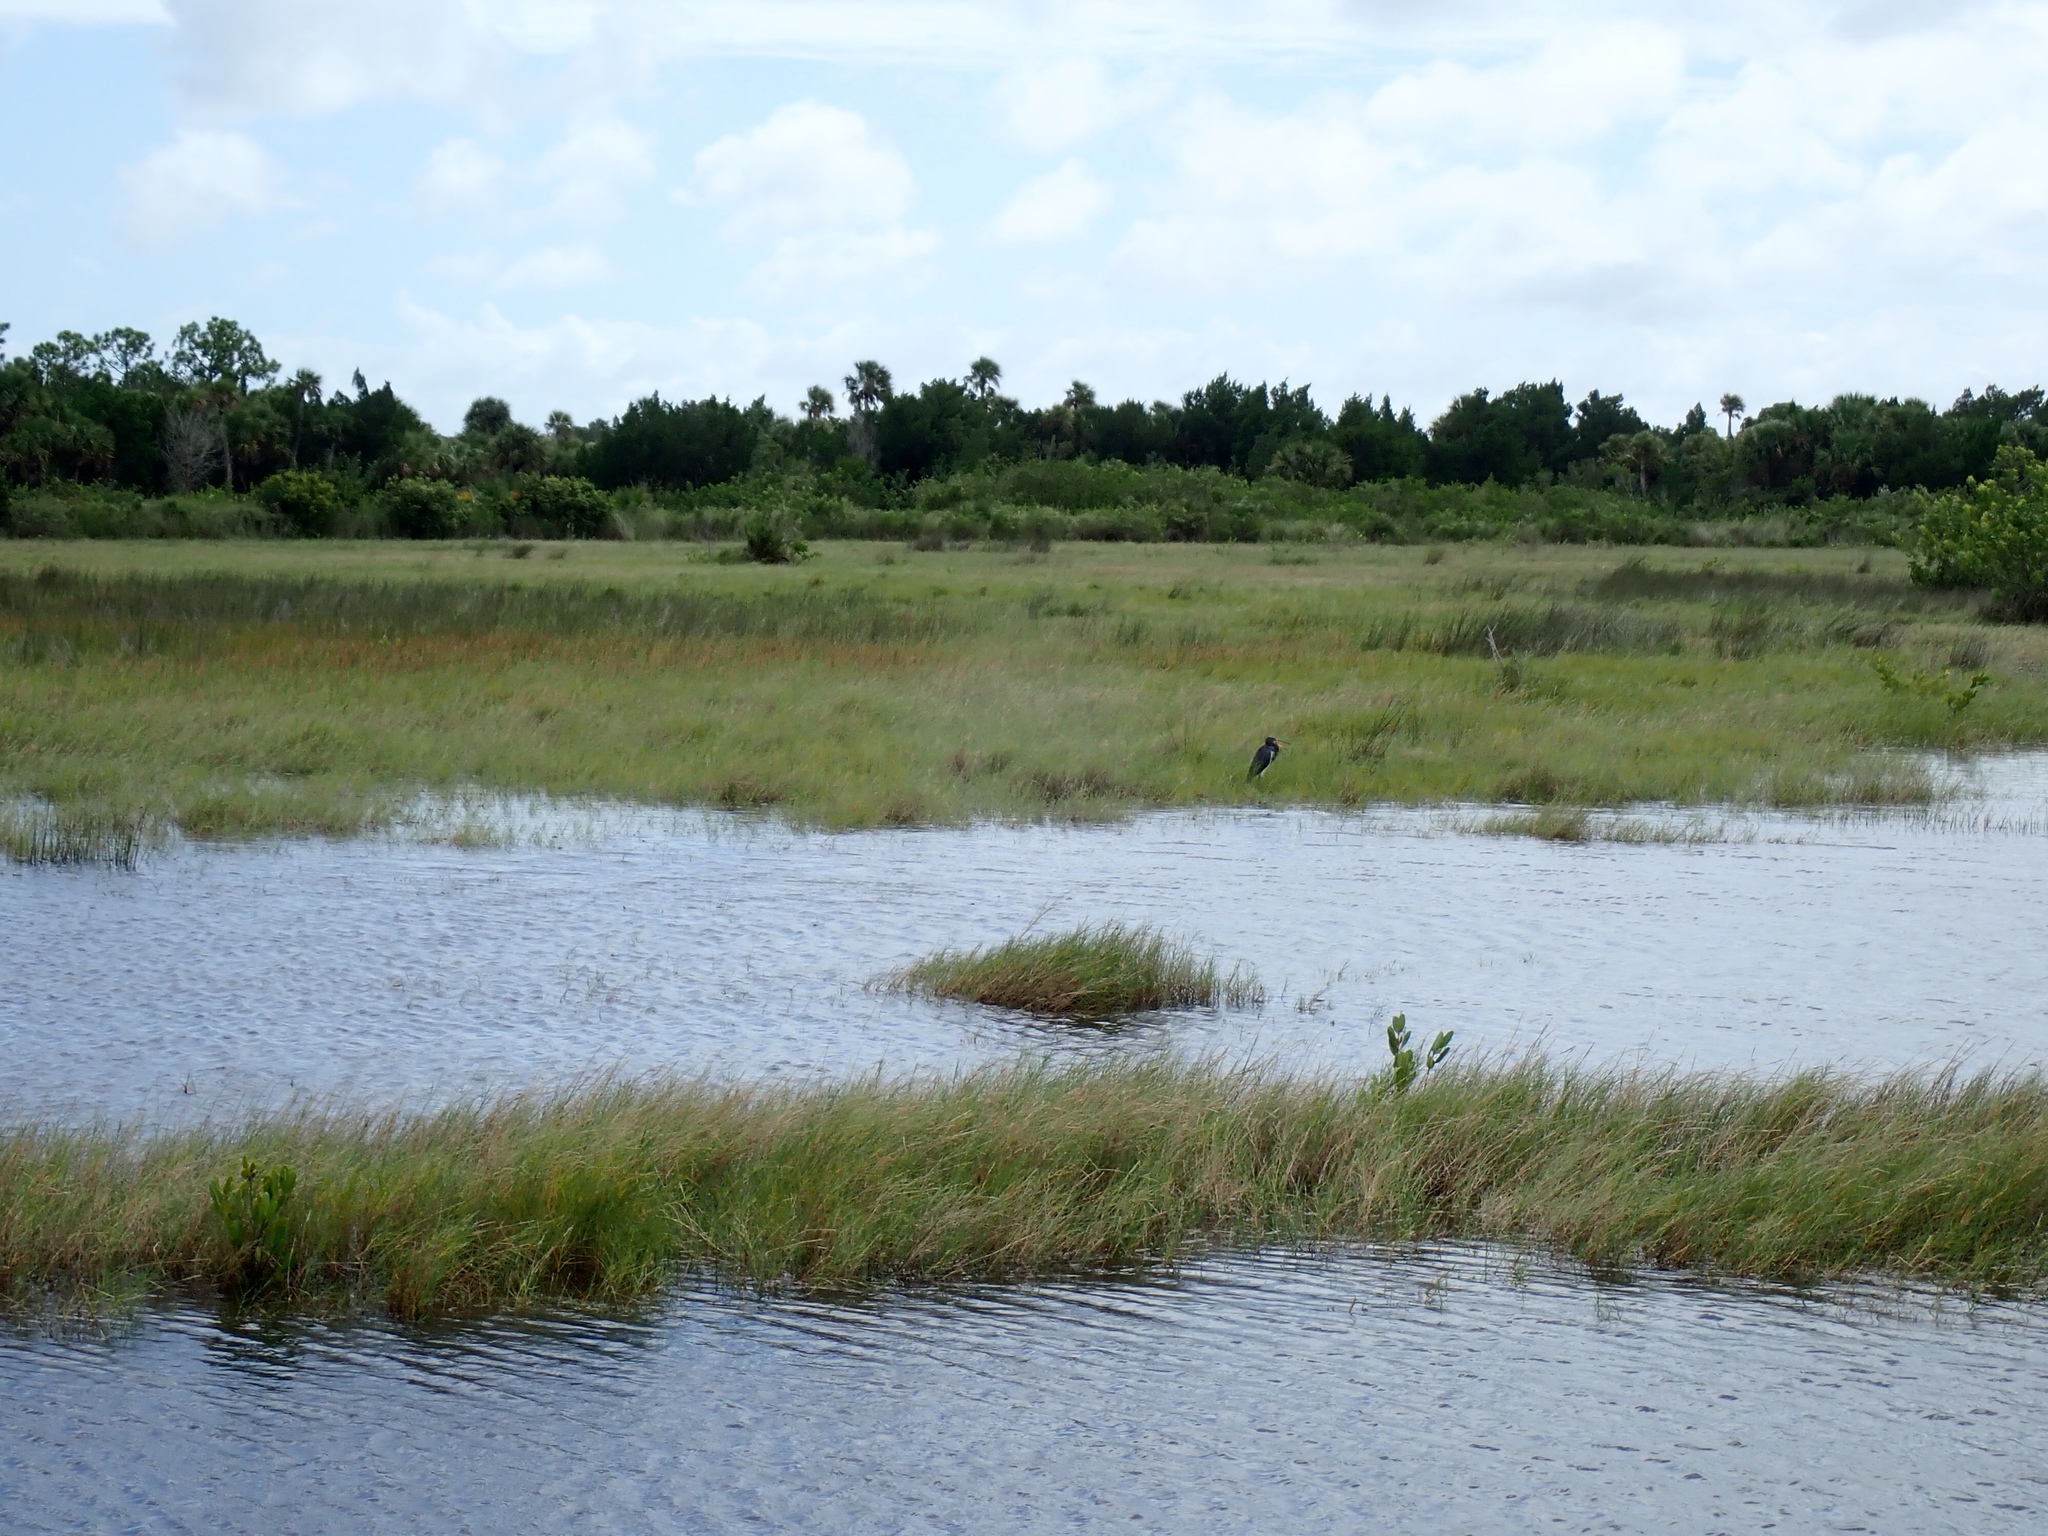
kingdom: Animalia
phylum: Chordata
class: Aves
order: Pelecaniformes
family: Ardeidae
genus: Egretta
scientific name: Egretta tricolor
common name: Tricolored heron
